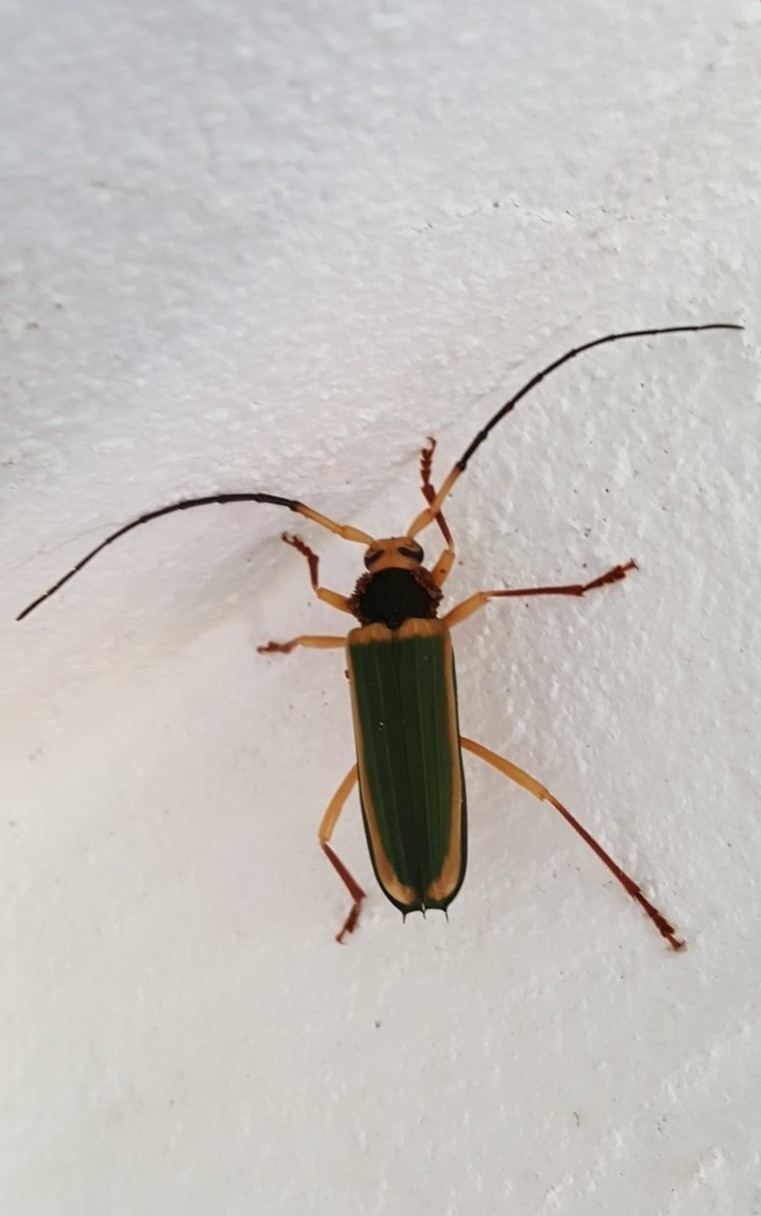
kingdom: Animalia
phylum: Arthropoda
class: Insecta
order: Coleoptera
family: Cerambycidae
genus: Chlorida
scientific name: Chlorida cincta
